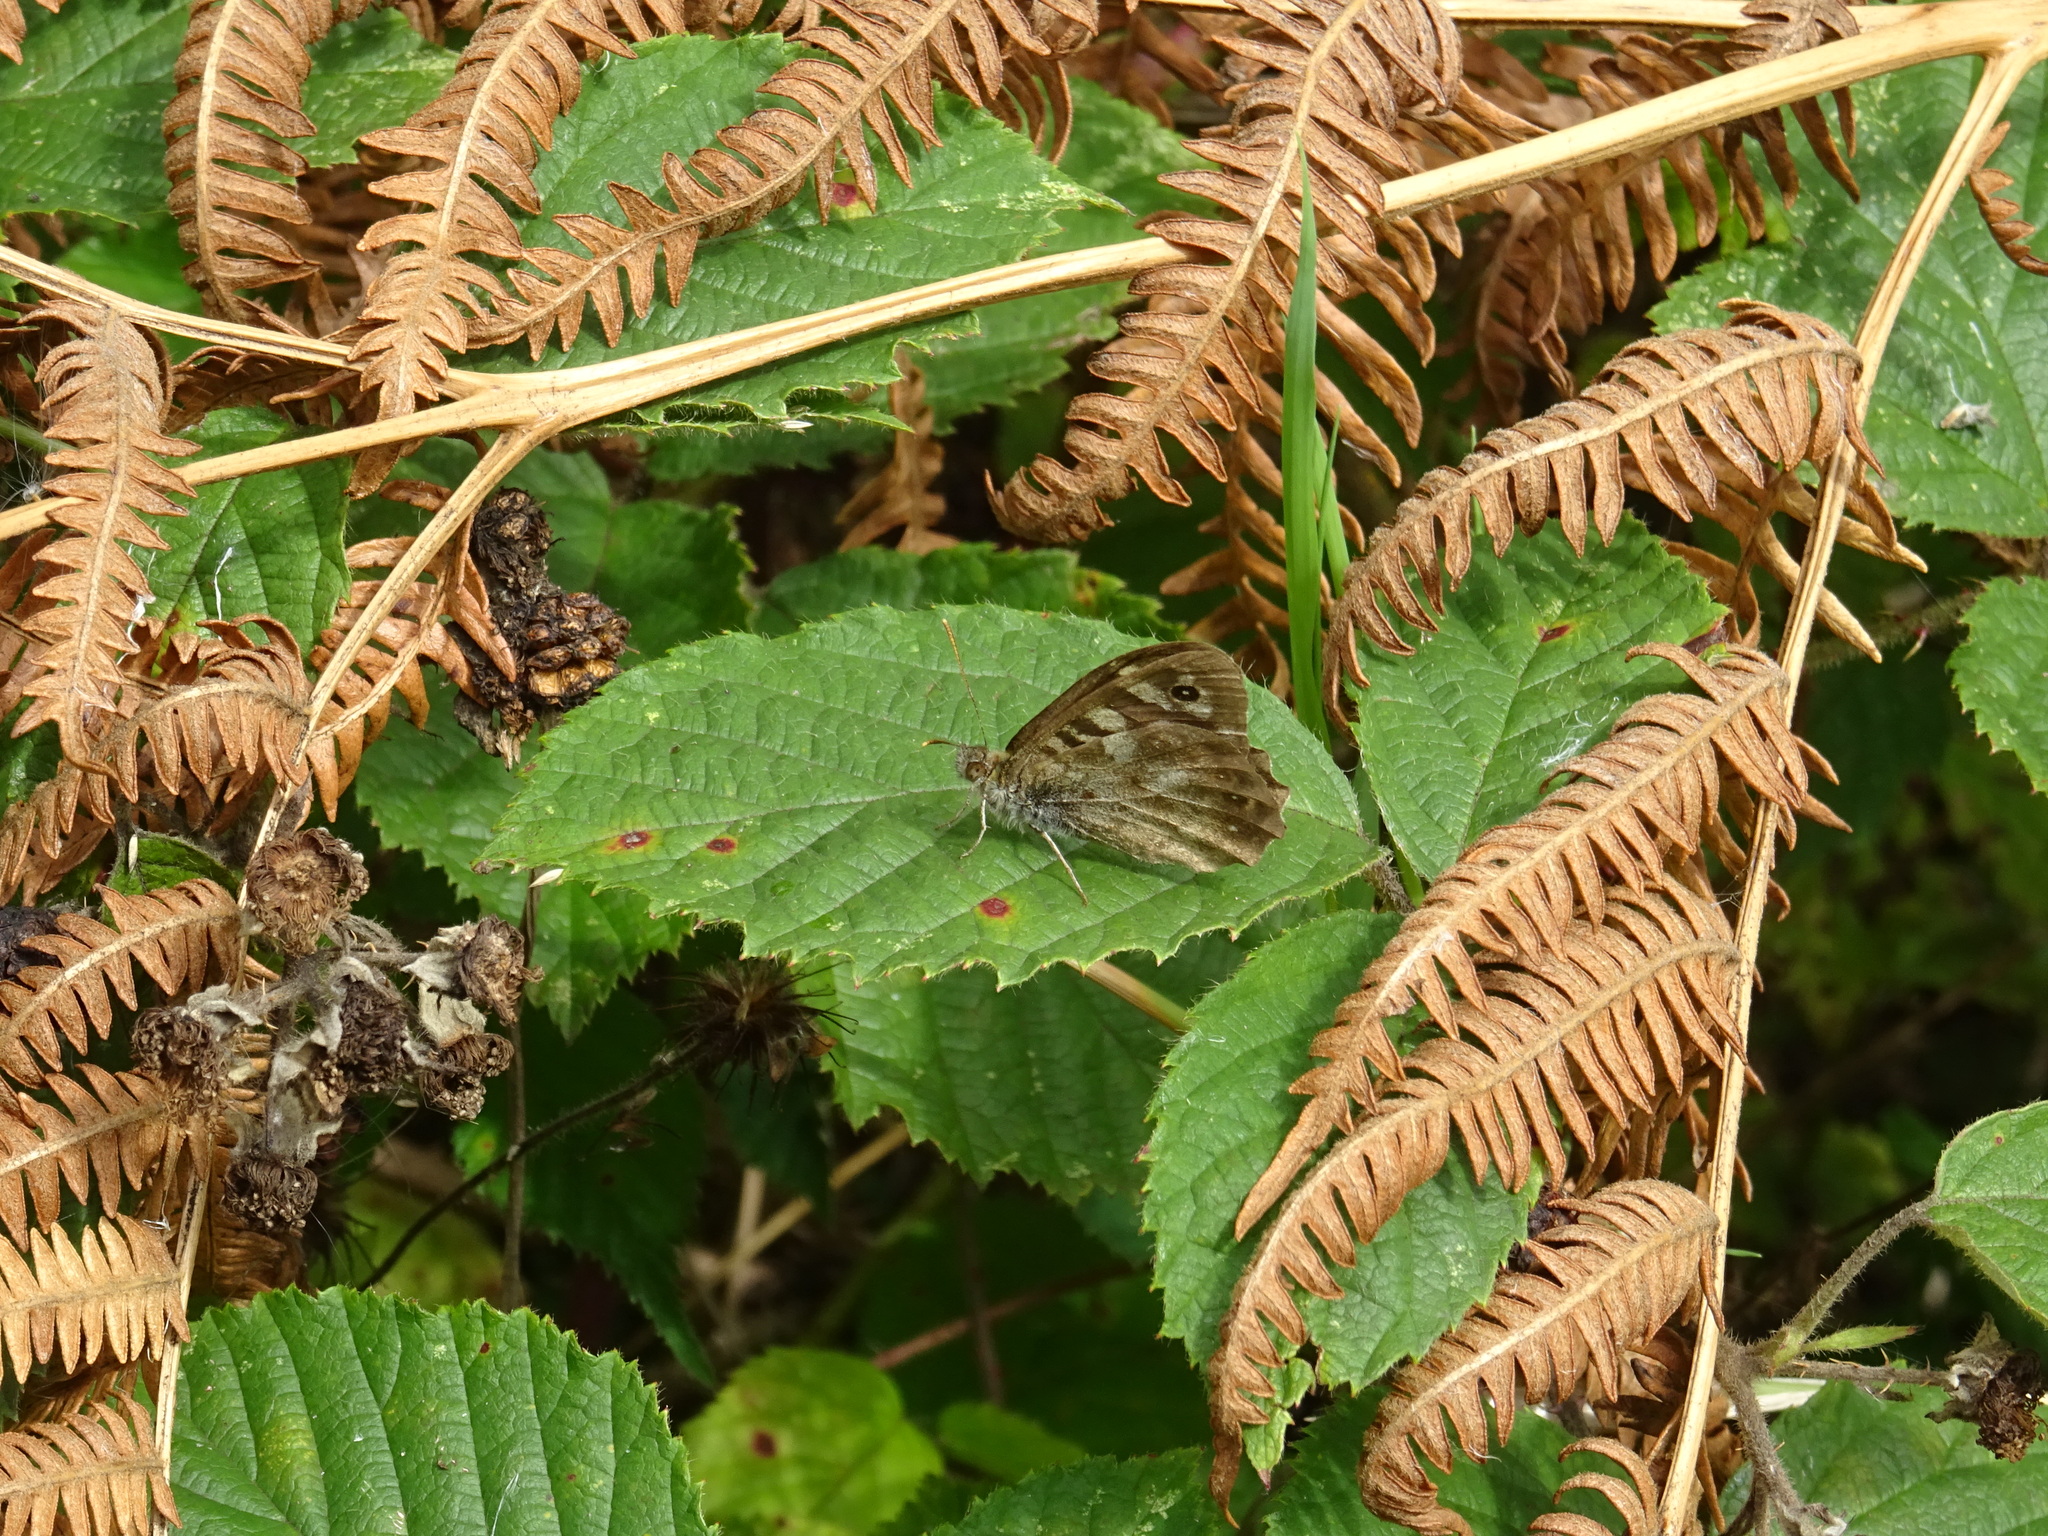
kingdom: Animalia
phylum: Arthropoda
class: Insecta
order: Lepidoptera
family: Nymphalidae
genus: Pararge
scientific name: Pararge aegeria
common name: Speckled wood
